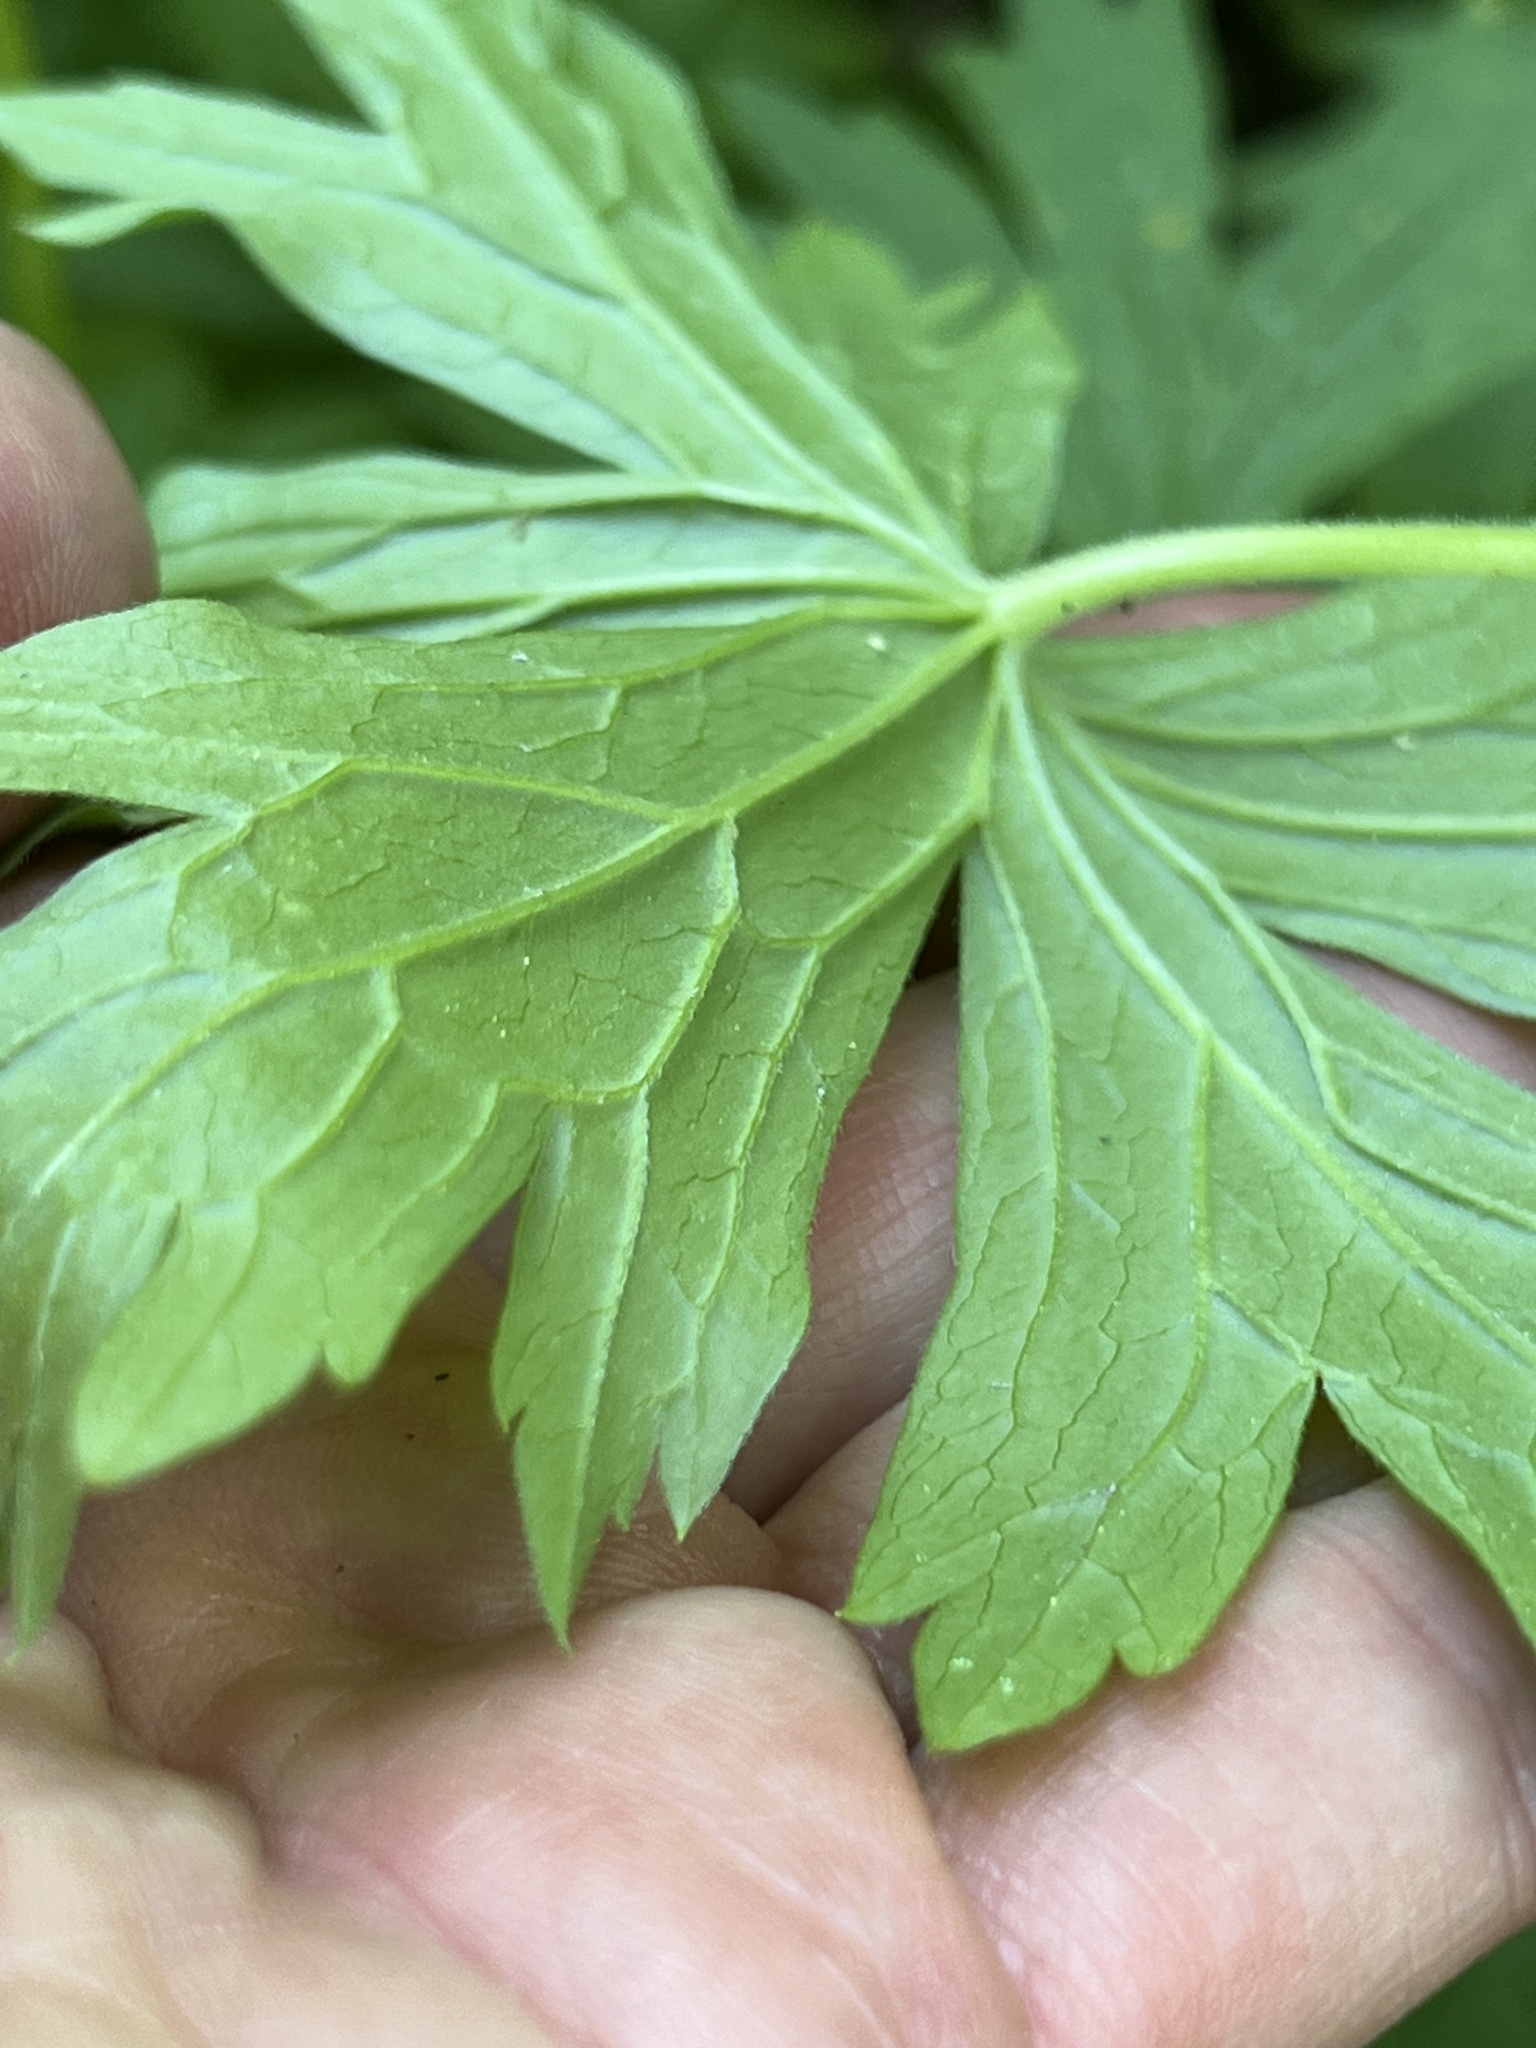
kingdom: Plantae
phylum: Tracheophyta
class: Magnoliopsida
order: Geraniales
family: Geraniaceae
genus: Geranium
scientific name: Geranium richardsonii
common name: Richardson's crane's-bill
